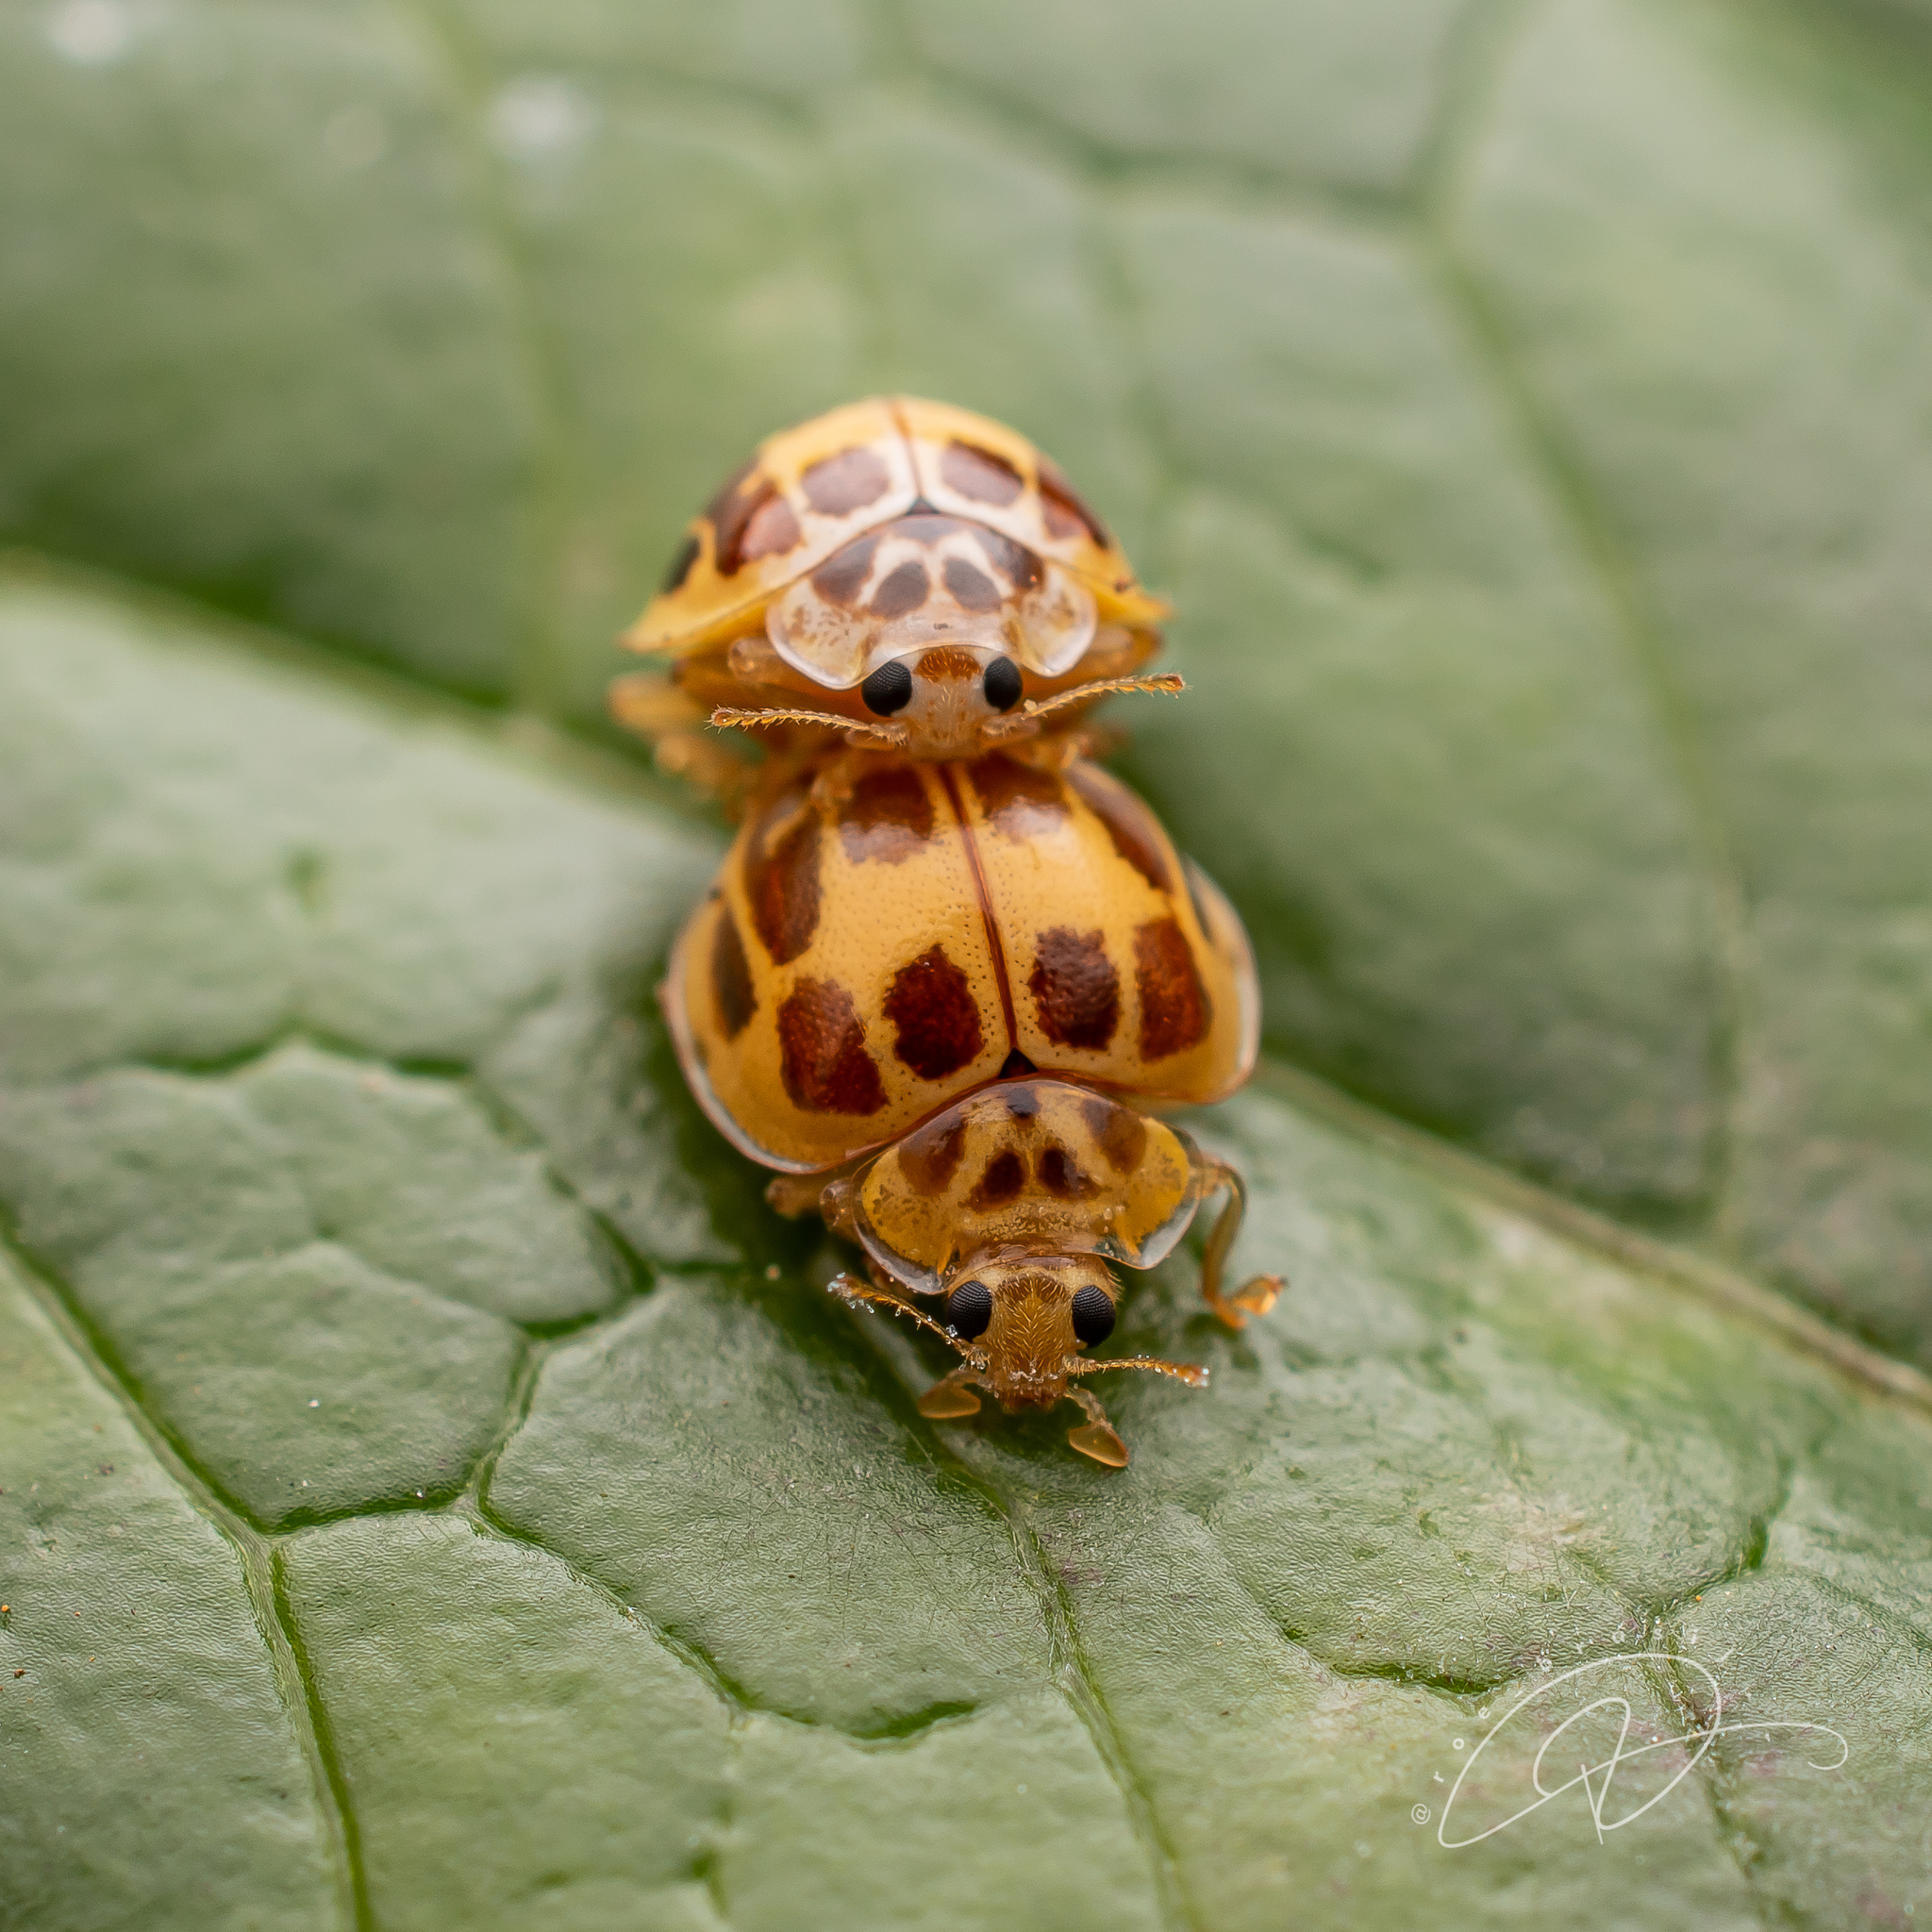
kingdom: Animalia
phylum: Arthropoda
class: Insecta
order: Coleoptera
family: Coccinellidae
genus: Psyllobora
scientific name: Psyllobora confluens
